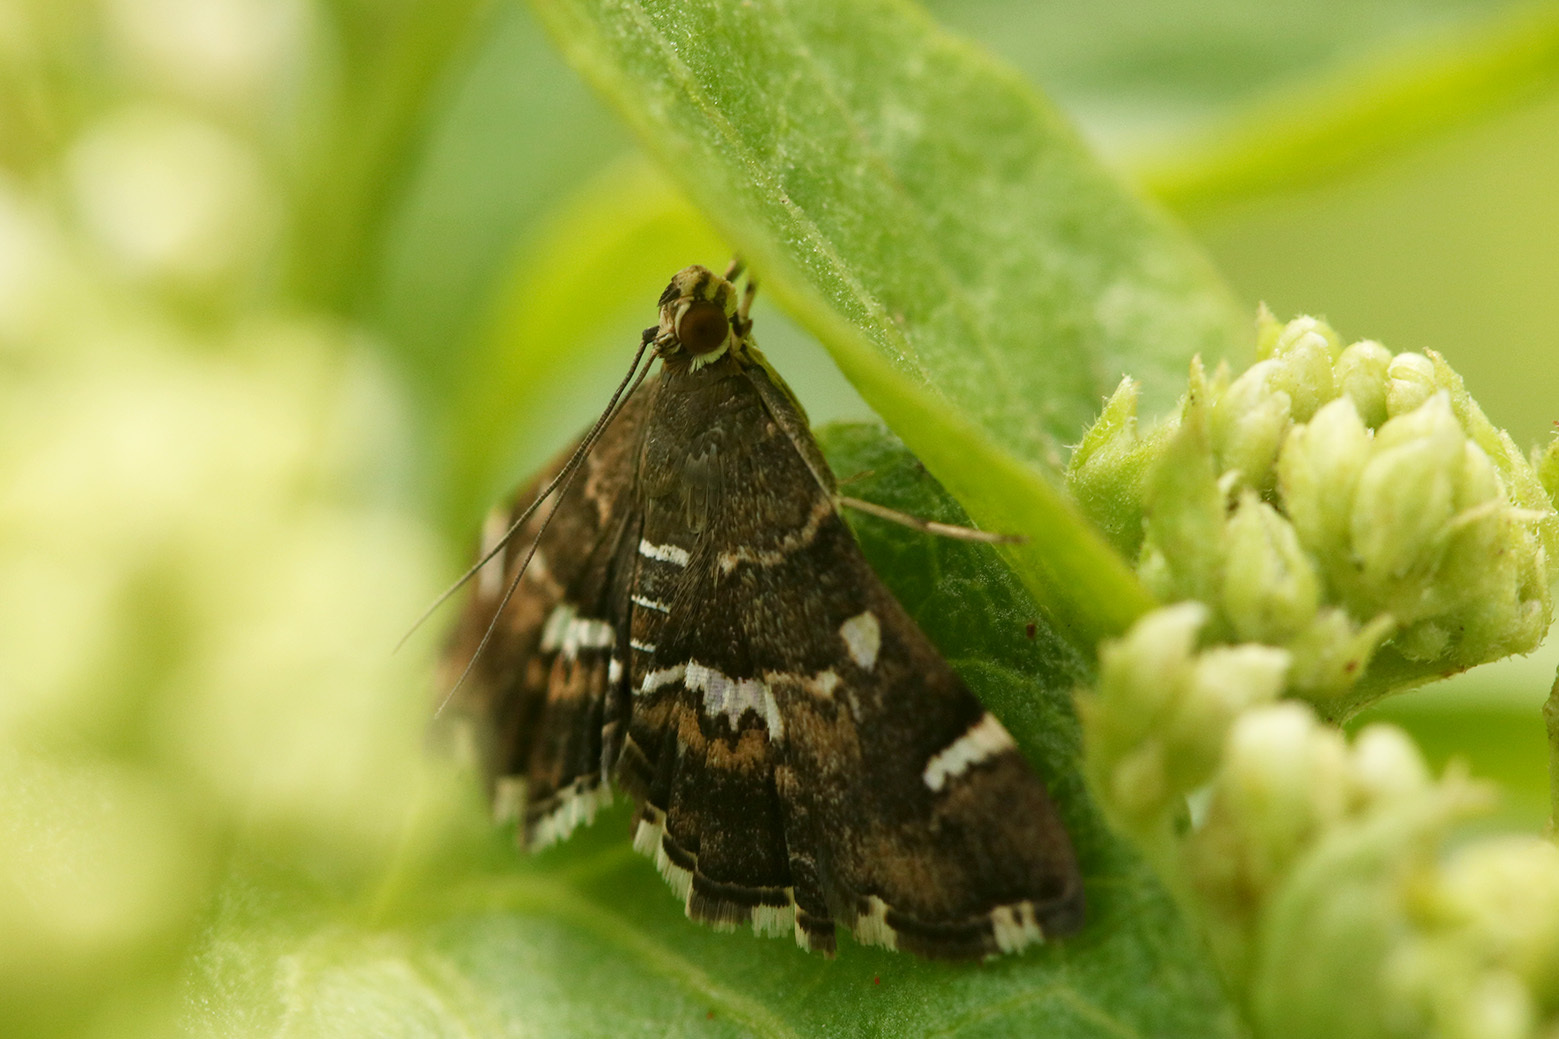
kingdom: Animalia
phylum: Arthropoda
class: Insecta
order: Lepidoptera
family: Crambidae
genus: Hymenia
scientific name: Hymenia perspectalis
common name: Spotted beet webworm
